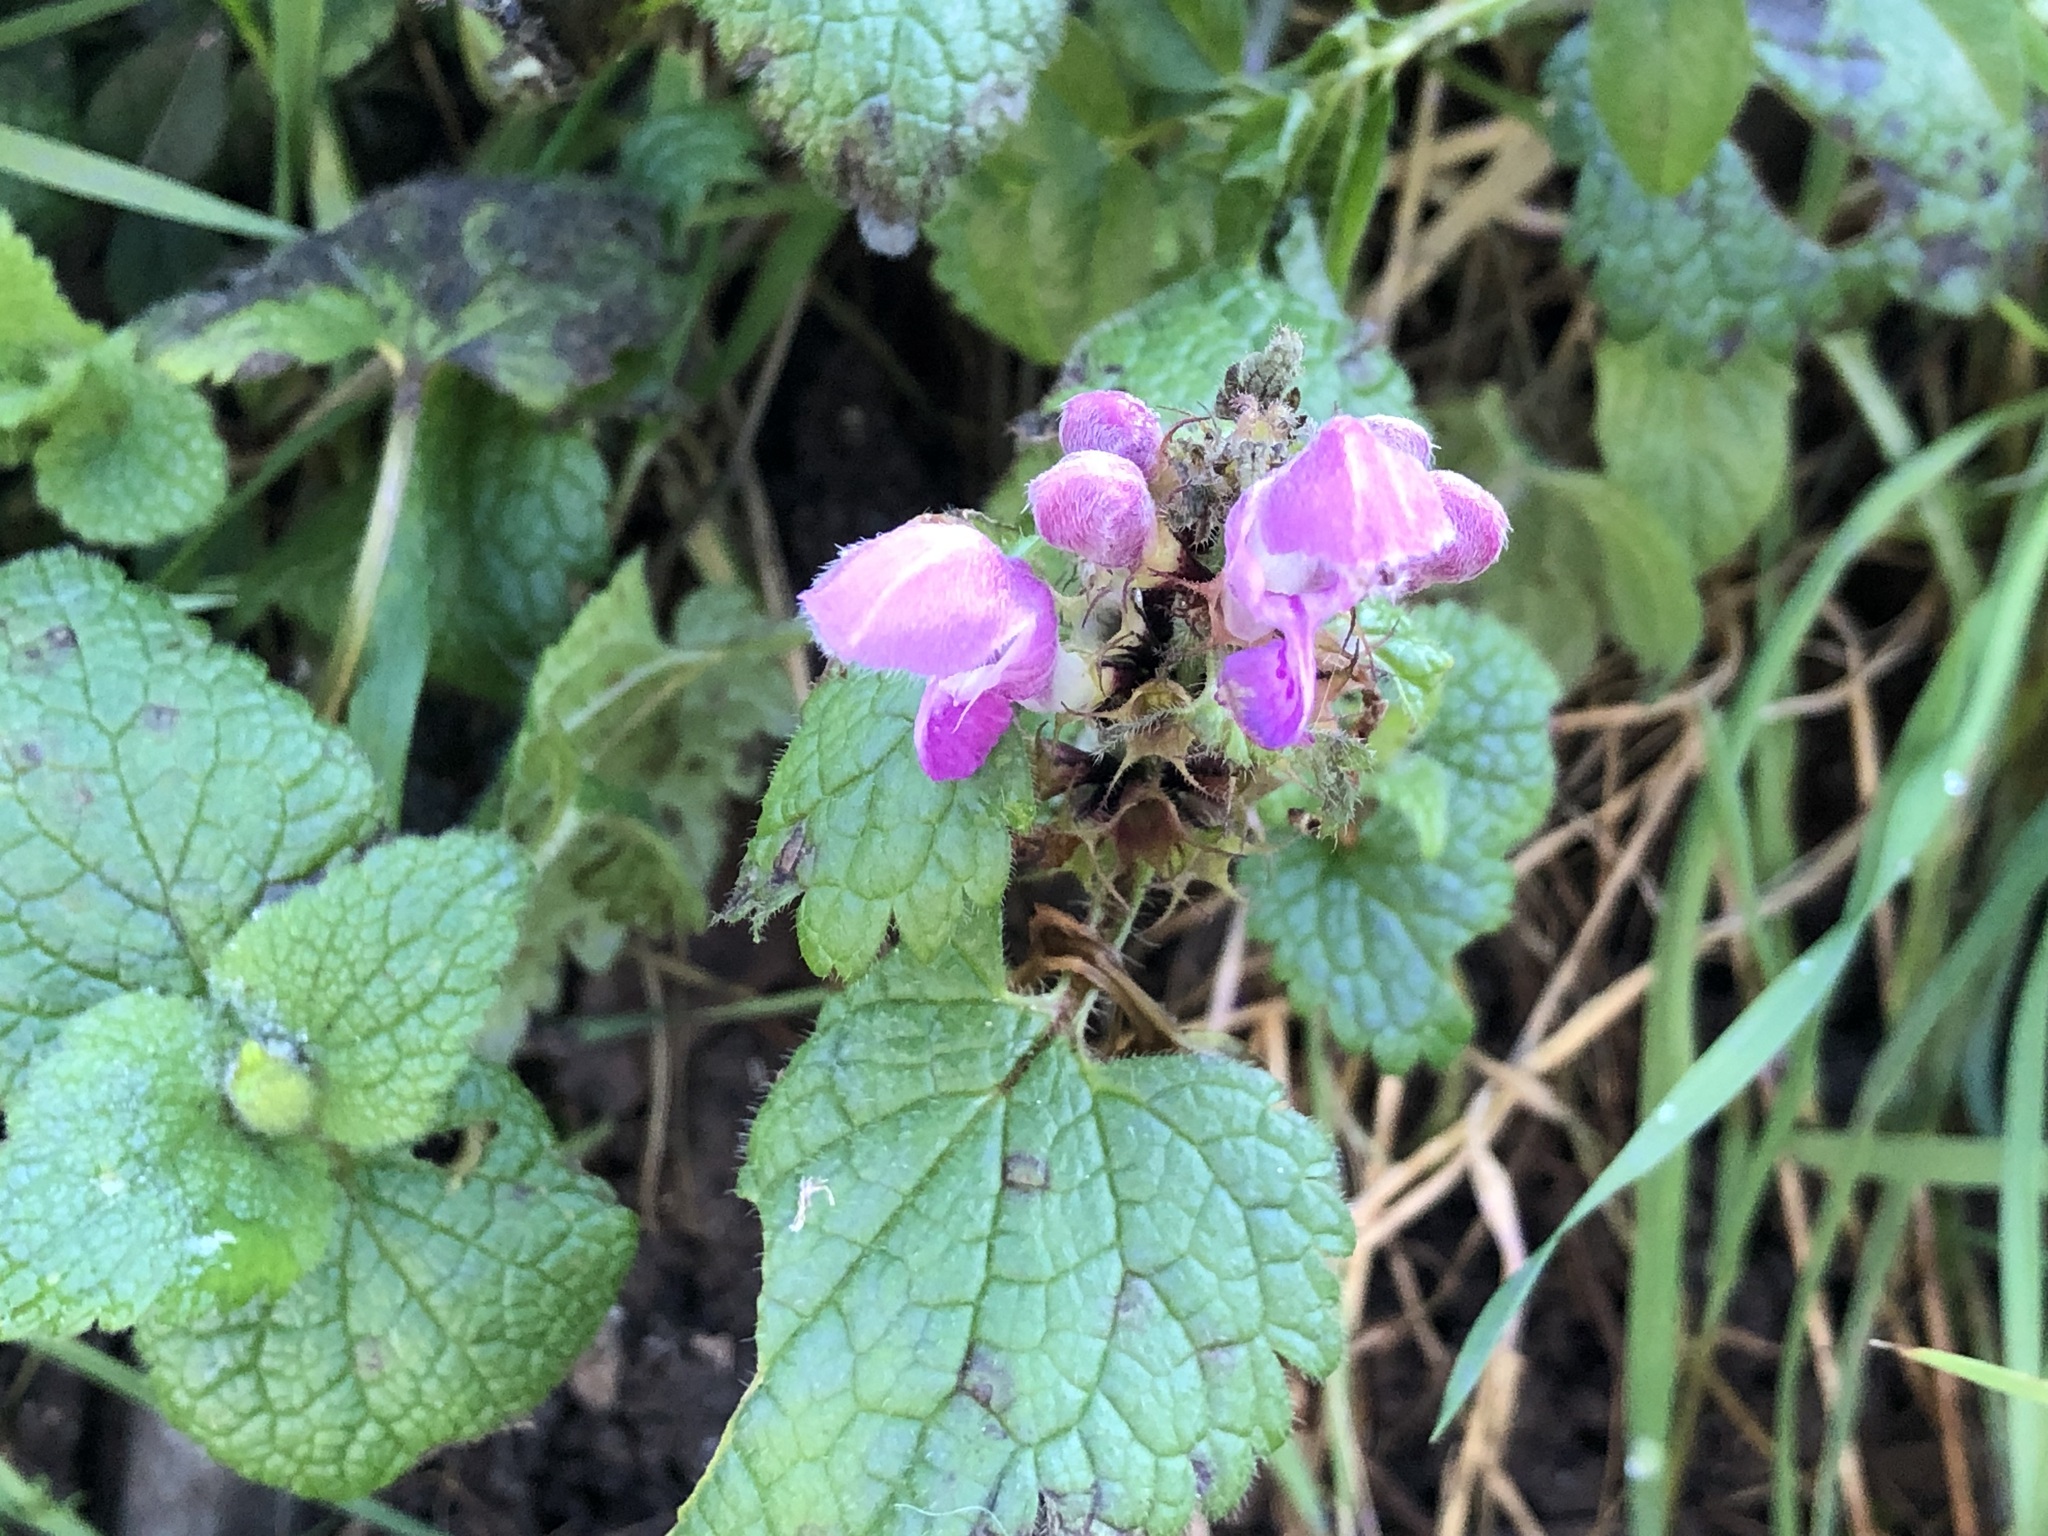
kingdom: Plantae
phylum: Tracheophyta
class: Magnoliopsida
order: Lamiales
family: Lamiaceae
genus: Lamium
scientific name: Lamium maculatum
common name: Spotted dead-nettle
